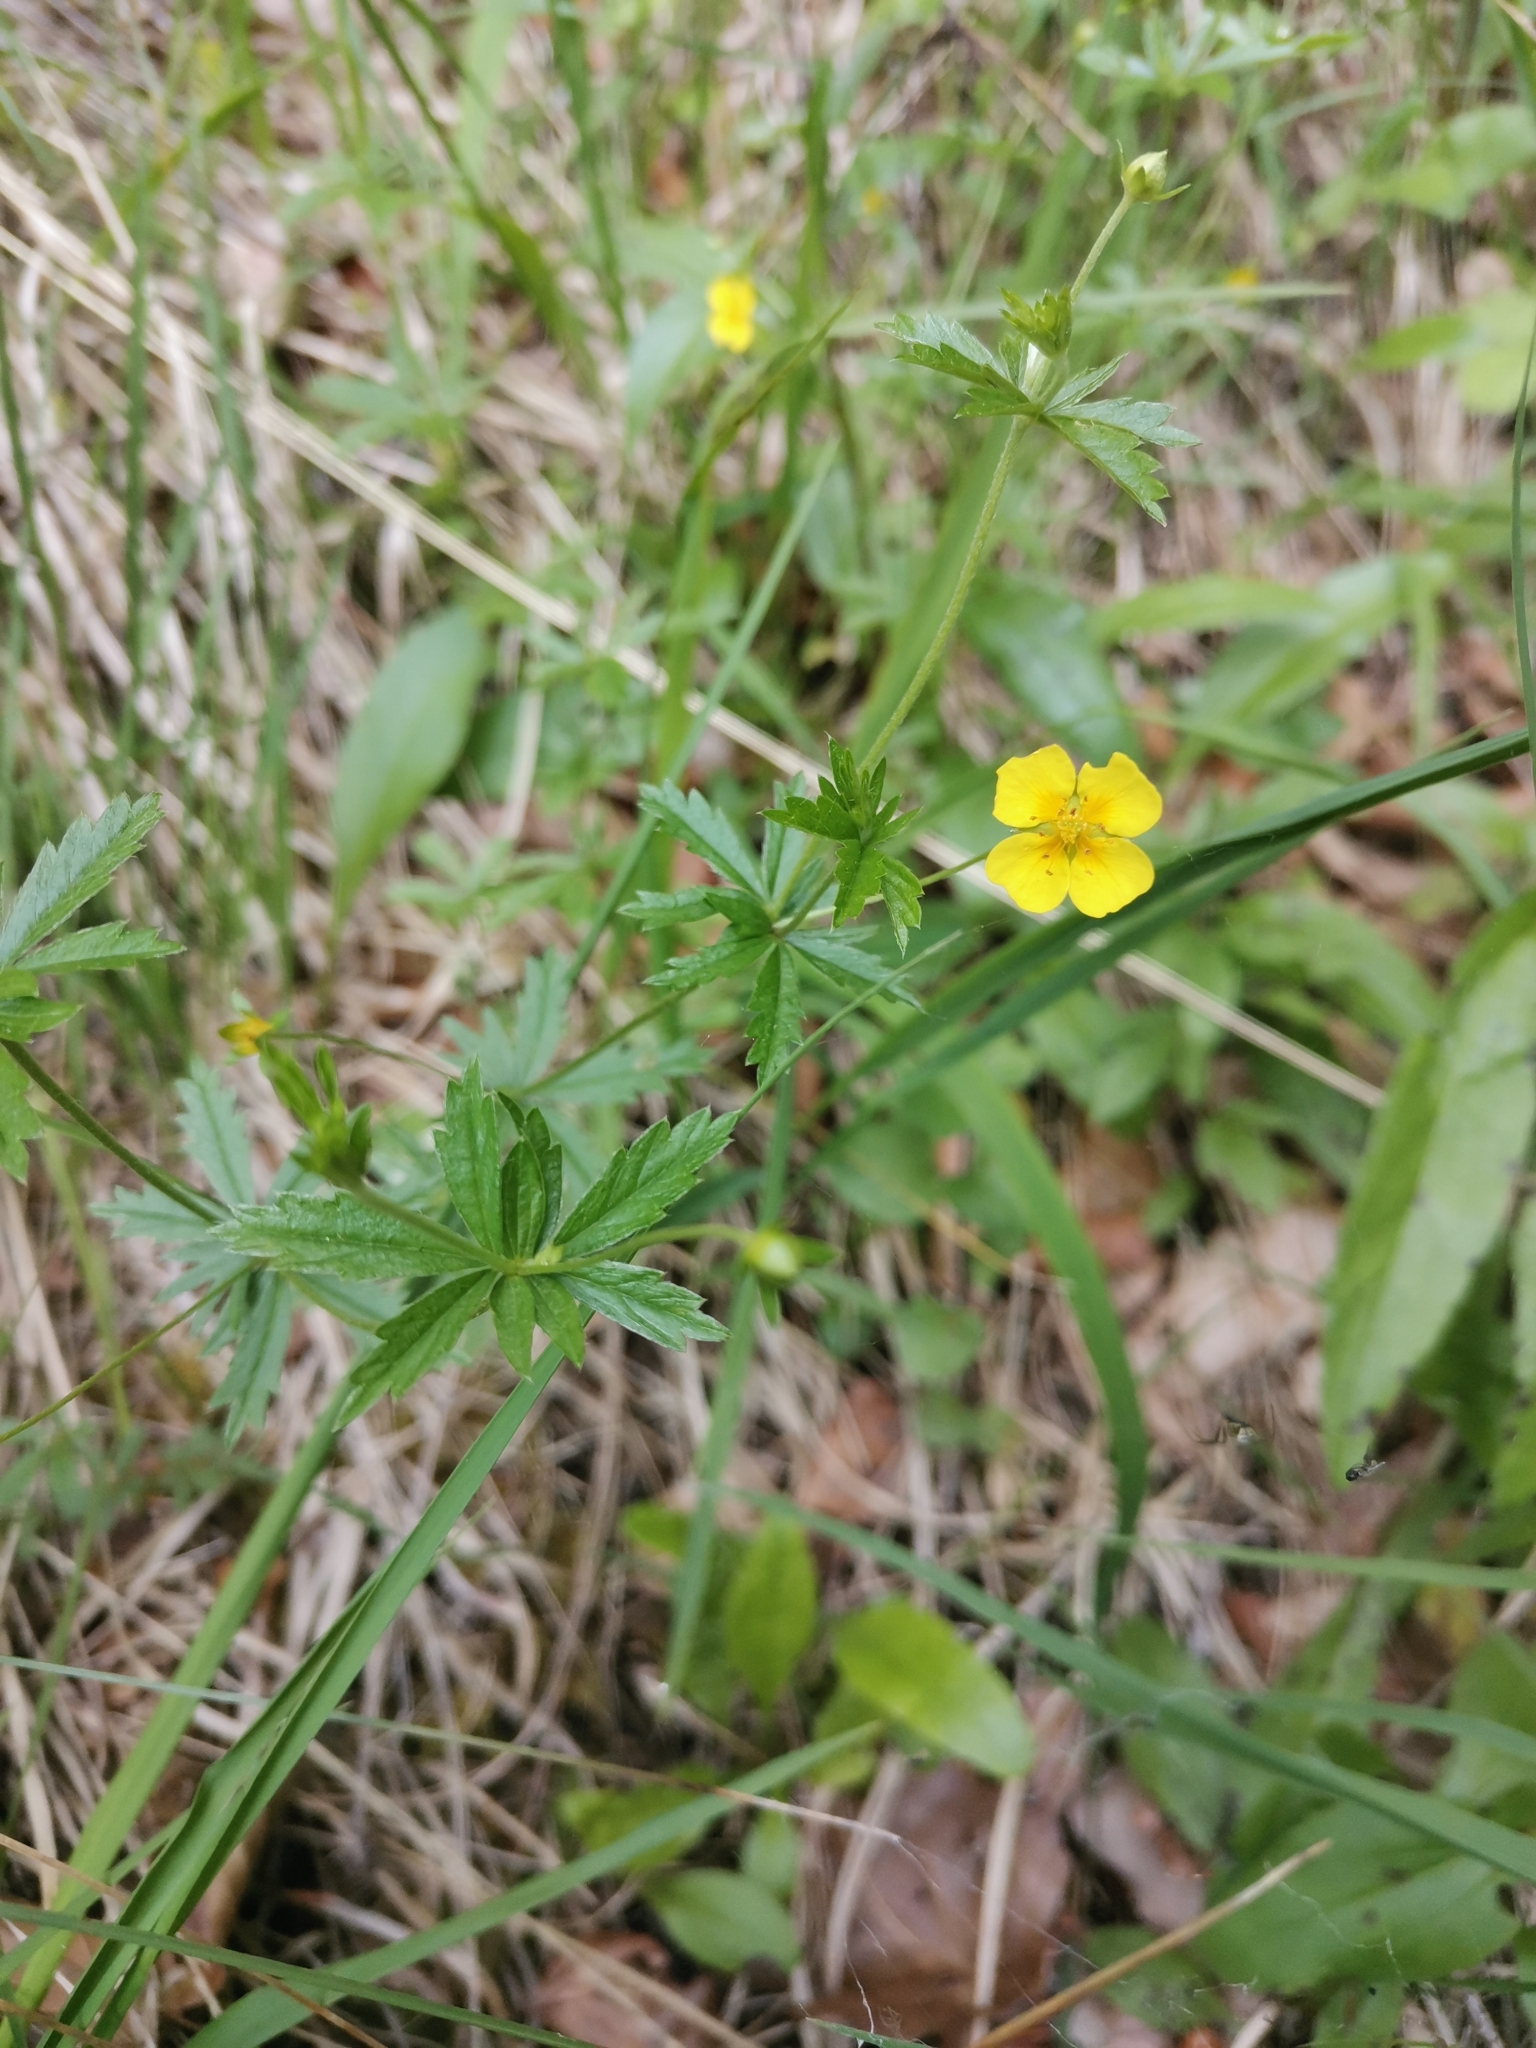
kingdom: Plantae
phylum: Tracheophyta
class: Magnoliopsida
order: Rosales
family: Rosaceae
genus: Potentilla
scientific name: Potentilla erecta
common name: Tormentil
